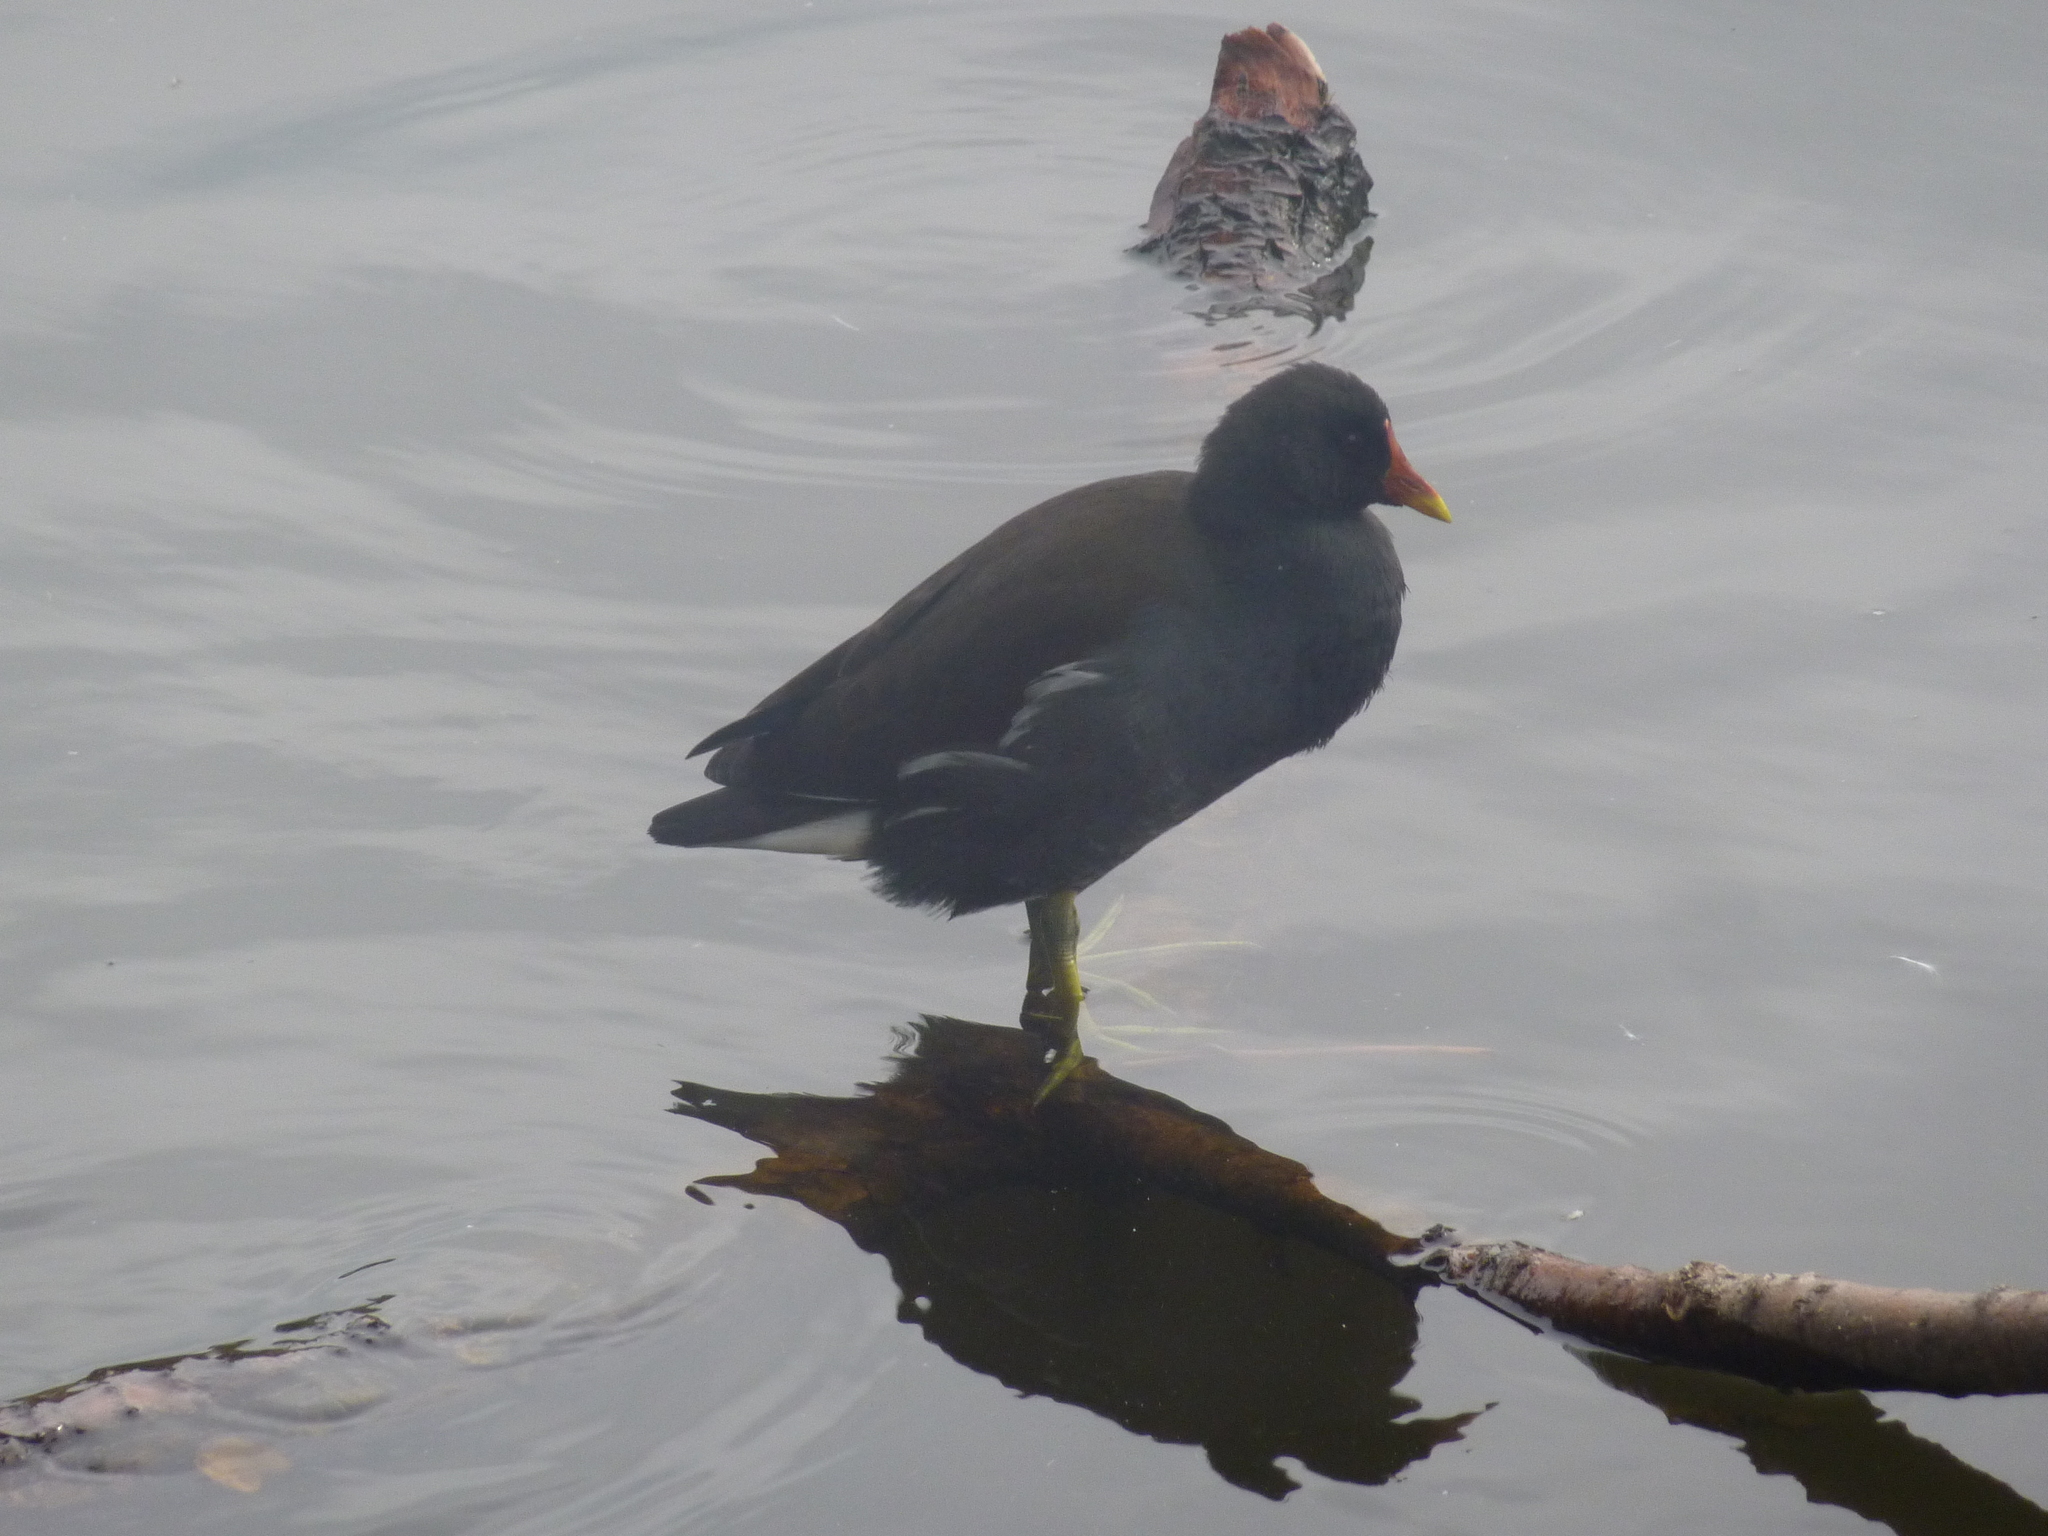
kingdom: Animalia
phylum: Chordata
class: Aves
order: Gruiformes
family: Rallidae
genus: Gallinula
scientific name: Gallinula chloropus
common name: Common moorhen
